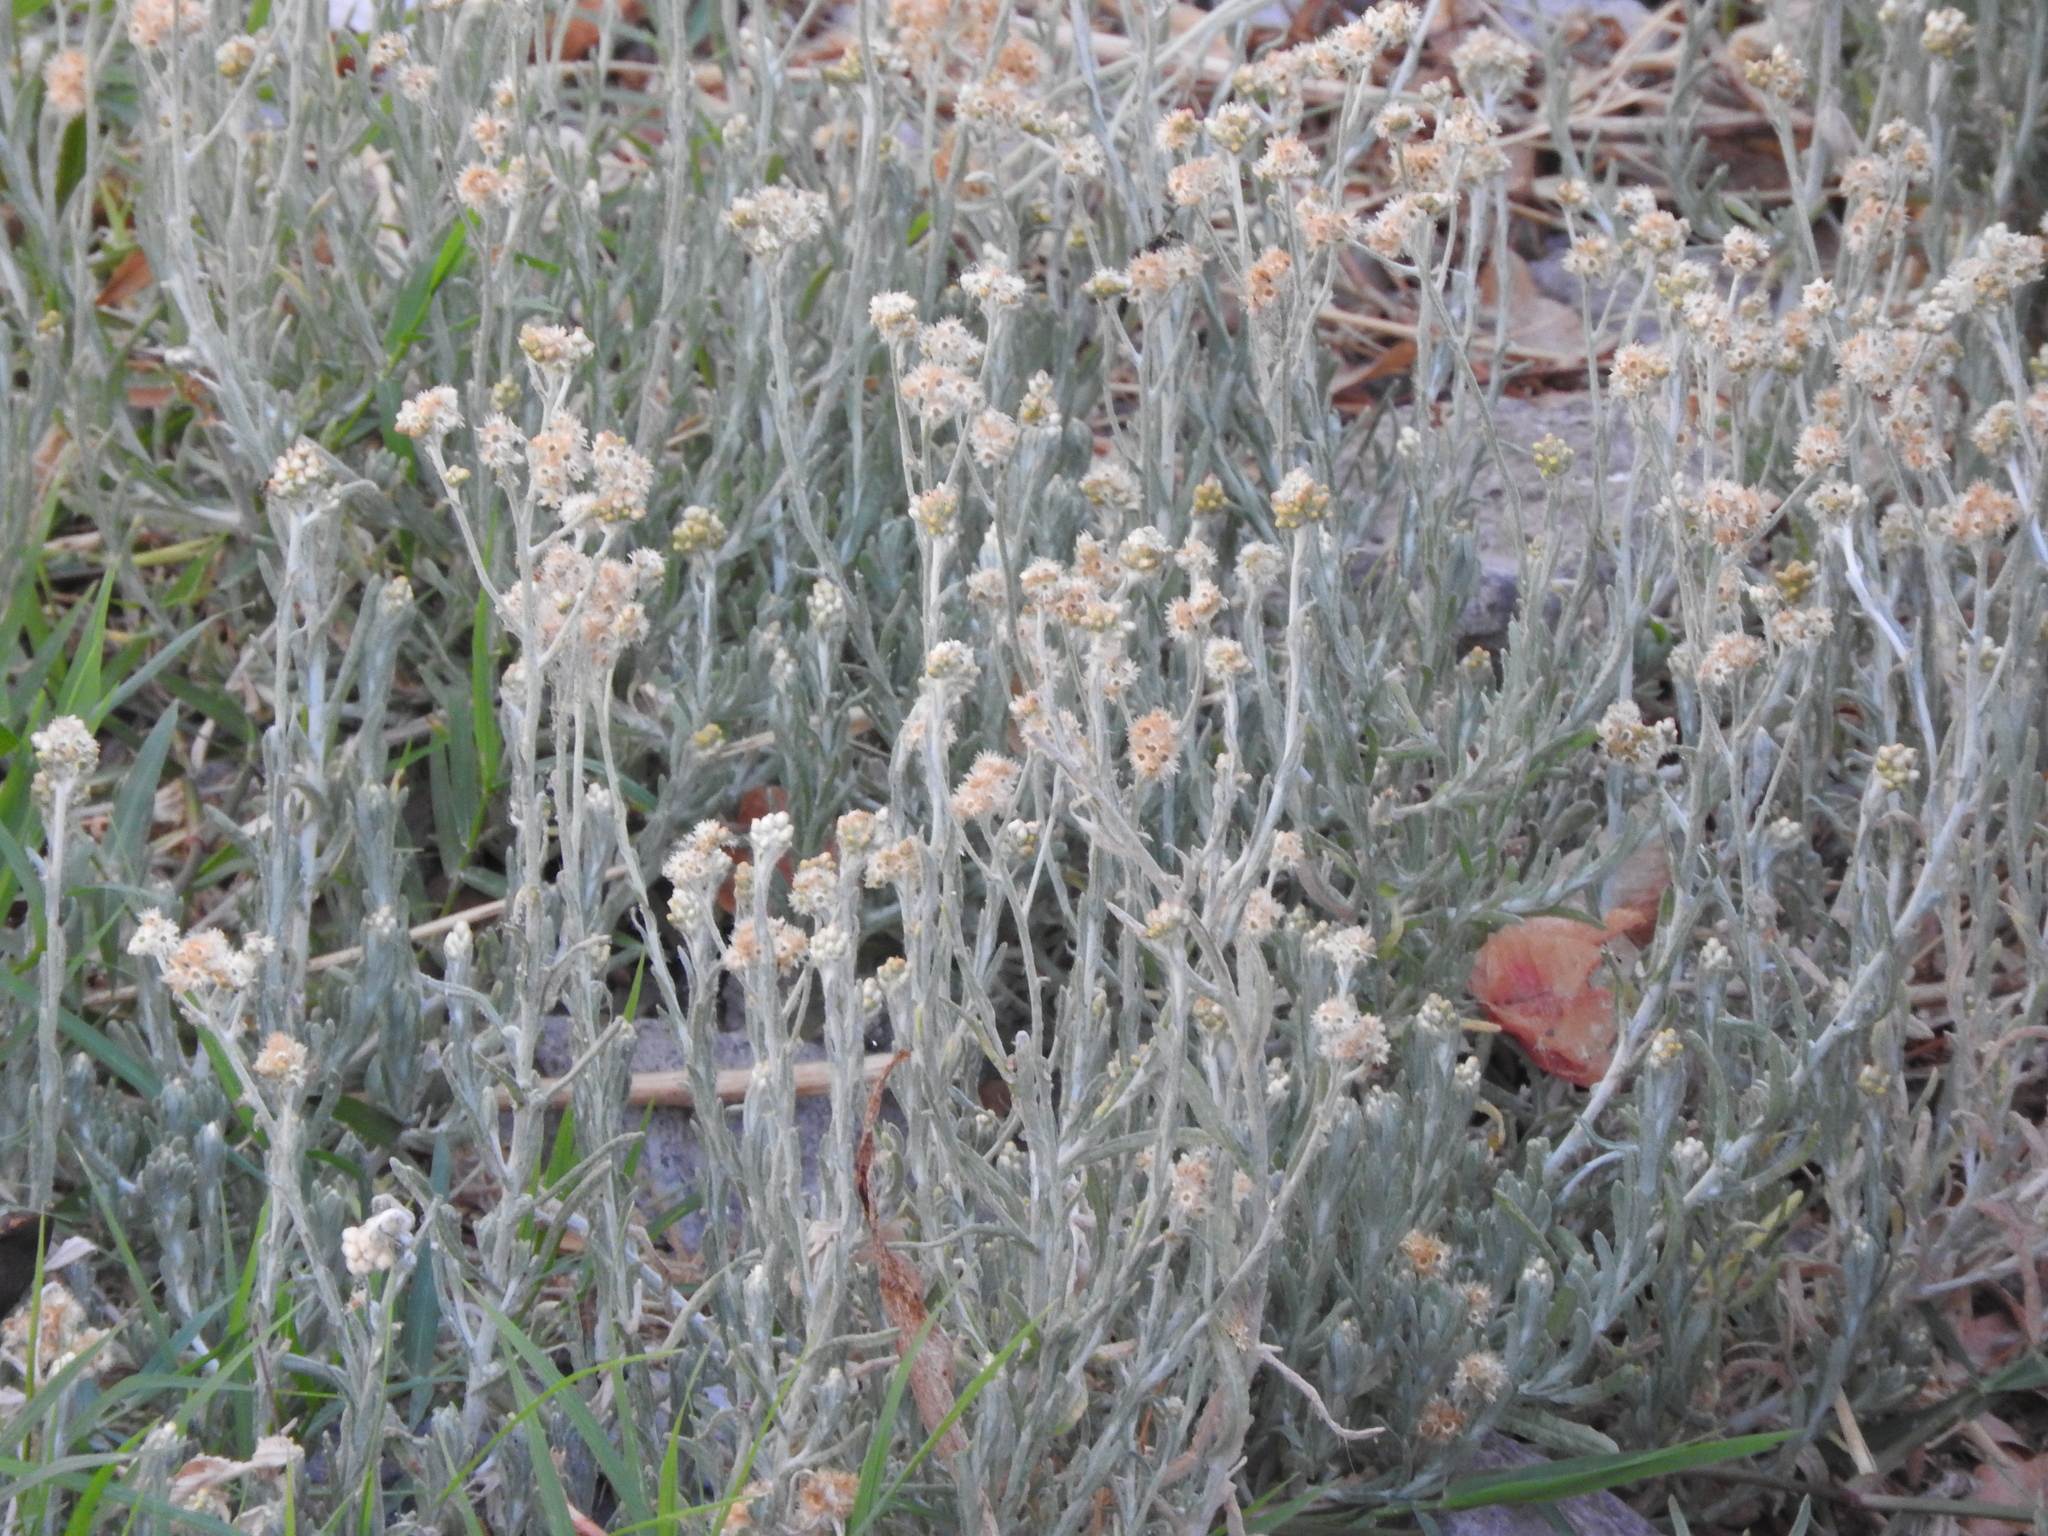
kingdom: Plantae
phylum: Tracheophyta
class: Magnoliopsida
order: Asterales
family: Asteraceae
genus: Helichrysum
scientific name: Helichrysum luteoalbum
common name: Daisy
